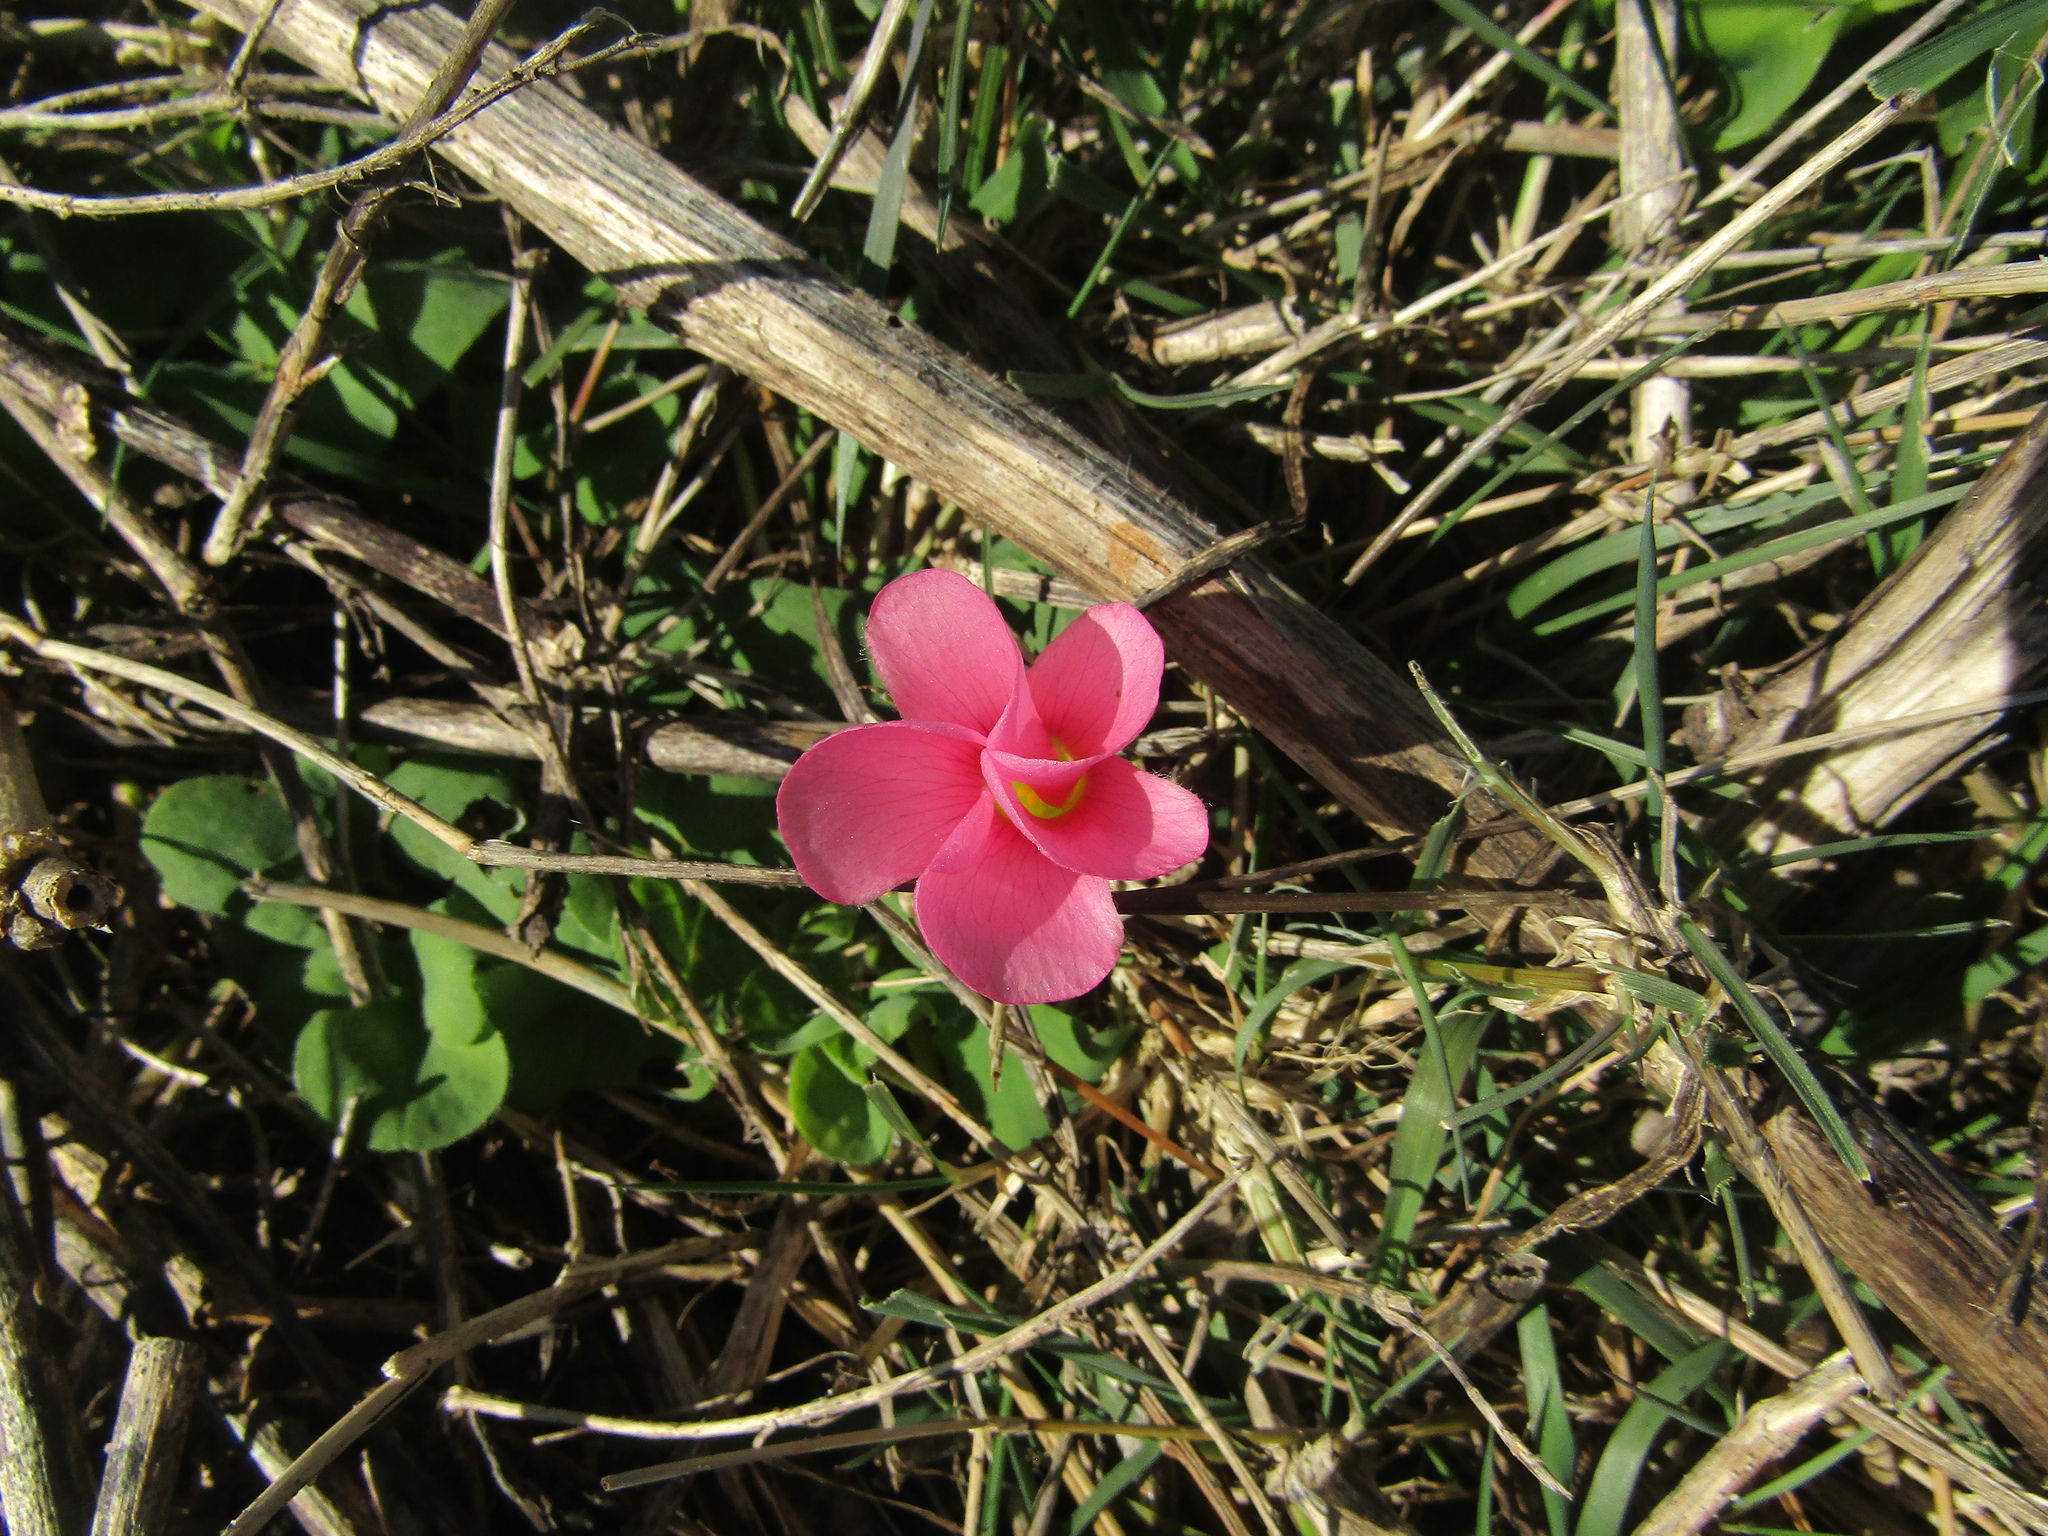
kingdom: Plantae
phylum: Tracheophyta
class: Magnoliopsida
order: Oxalidales
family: Oxalidaceae
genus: Oxalis
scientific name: Oxalis purpurea
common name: Purple woodsorrel
